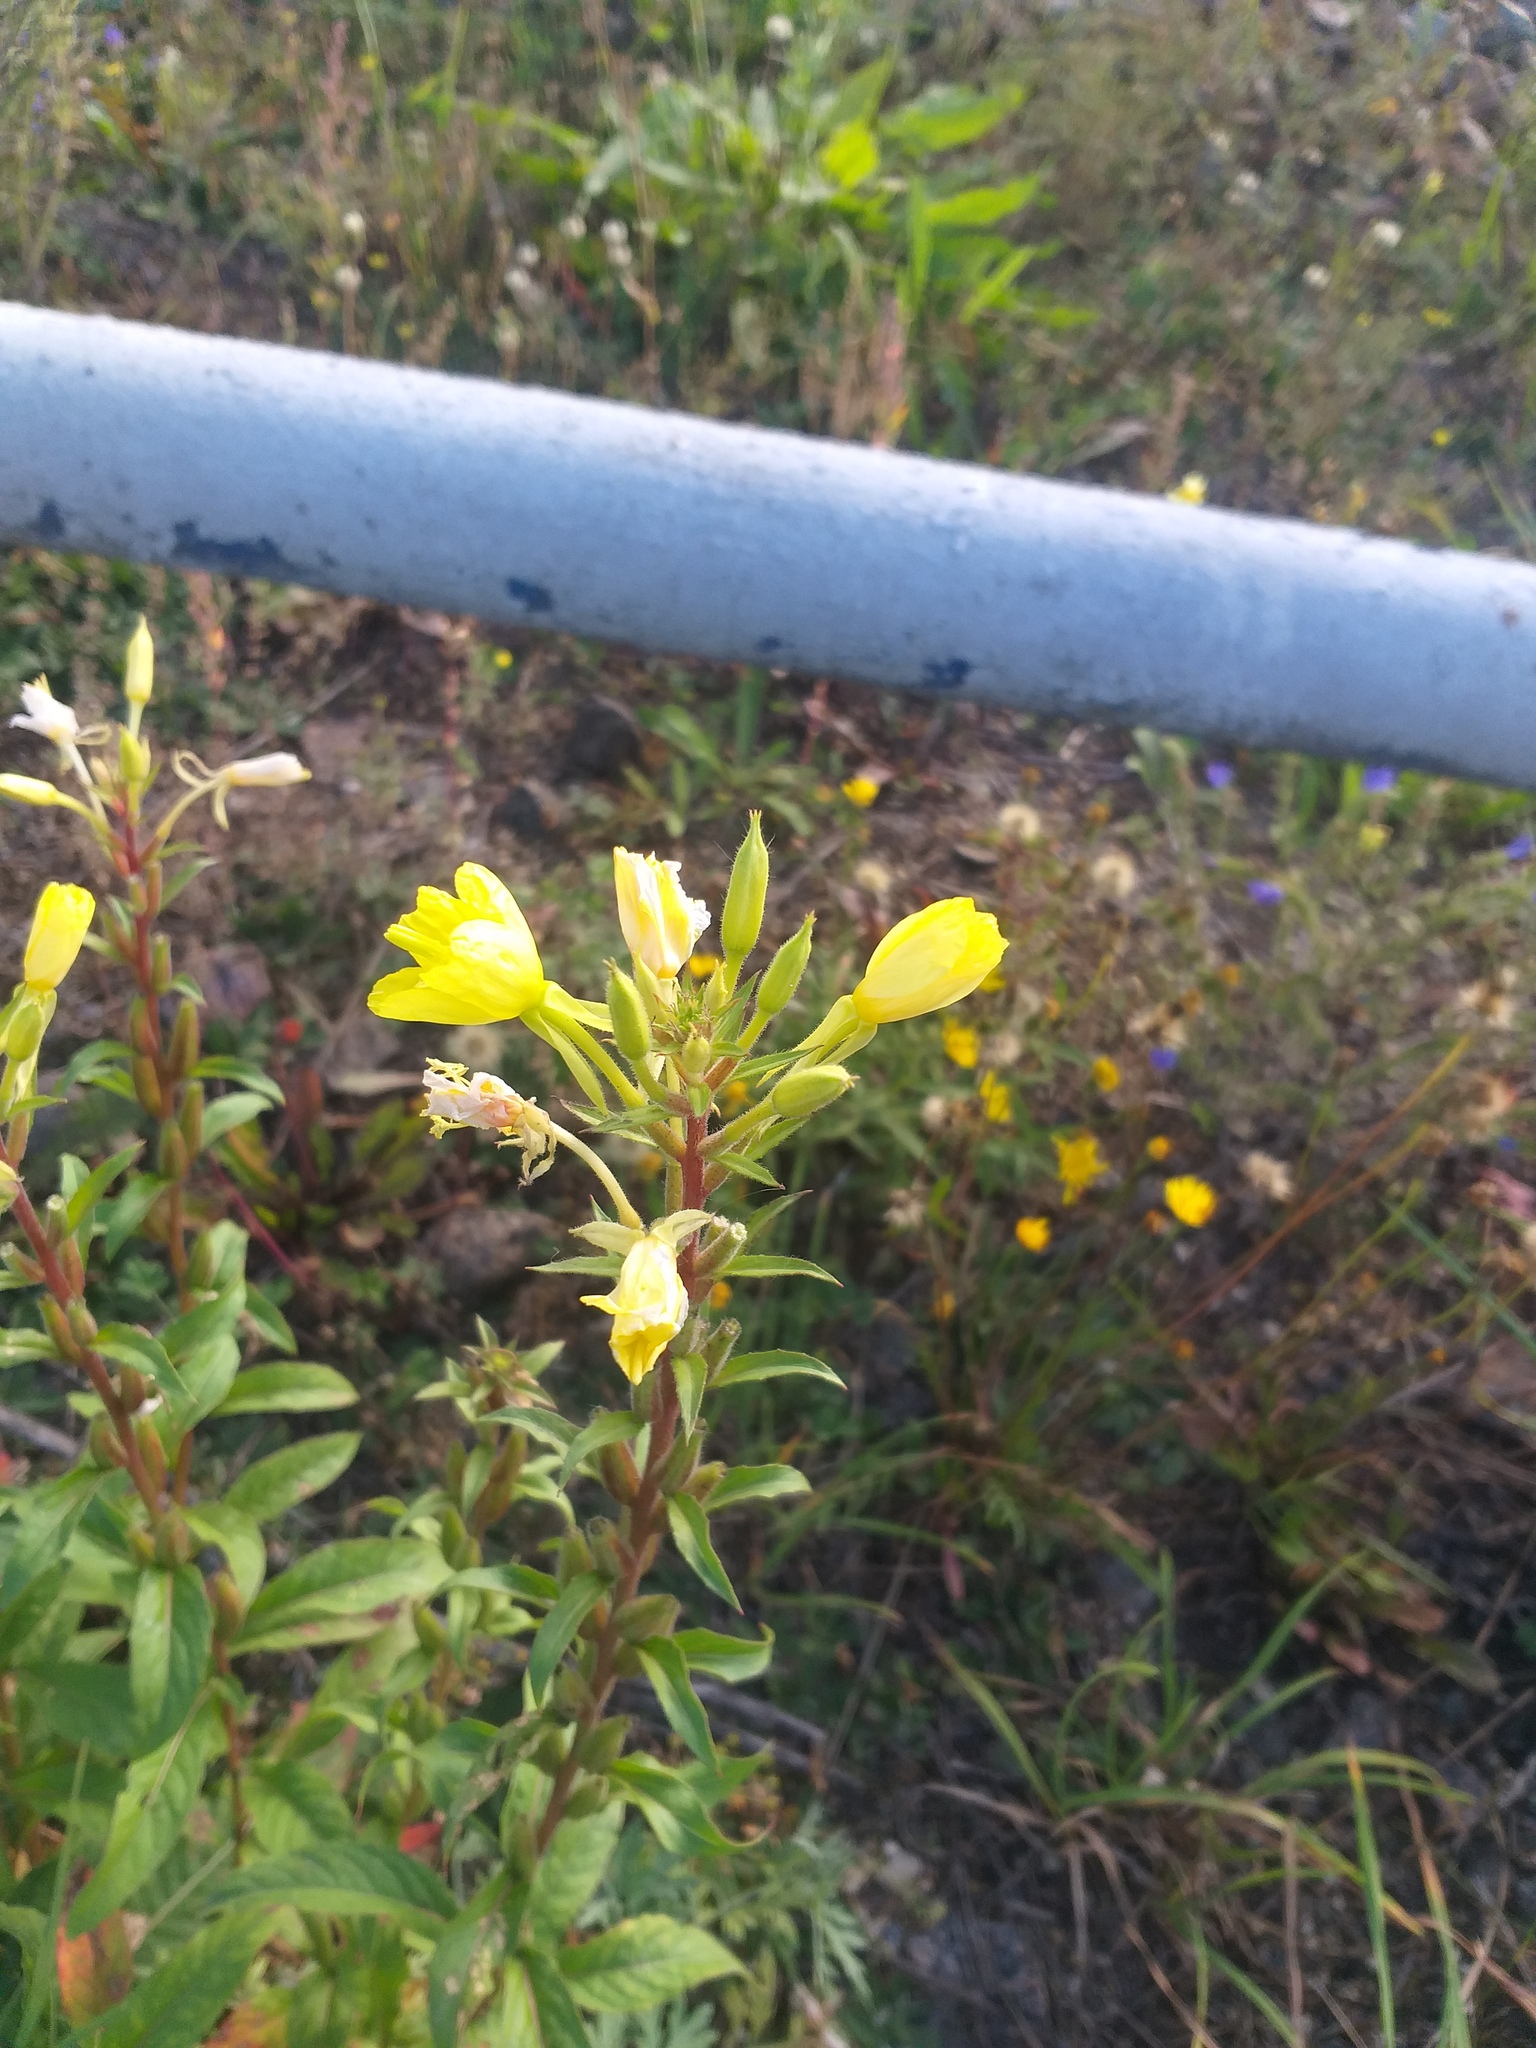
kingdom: Plantae
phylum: Tracheophyta
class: Magnoliopsida
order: Myrtales
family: Onagraceae
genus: Oenothera
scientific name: Oenothera rubricaulis
